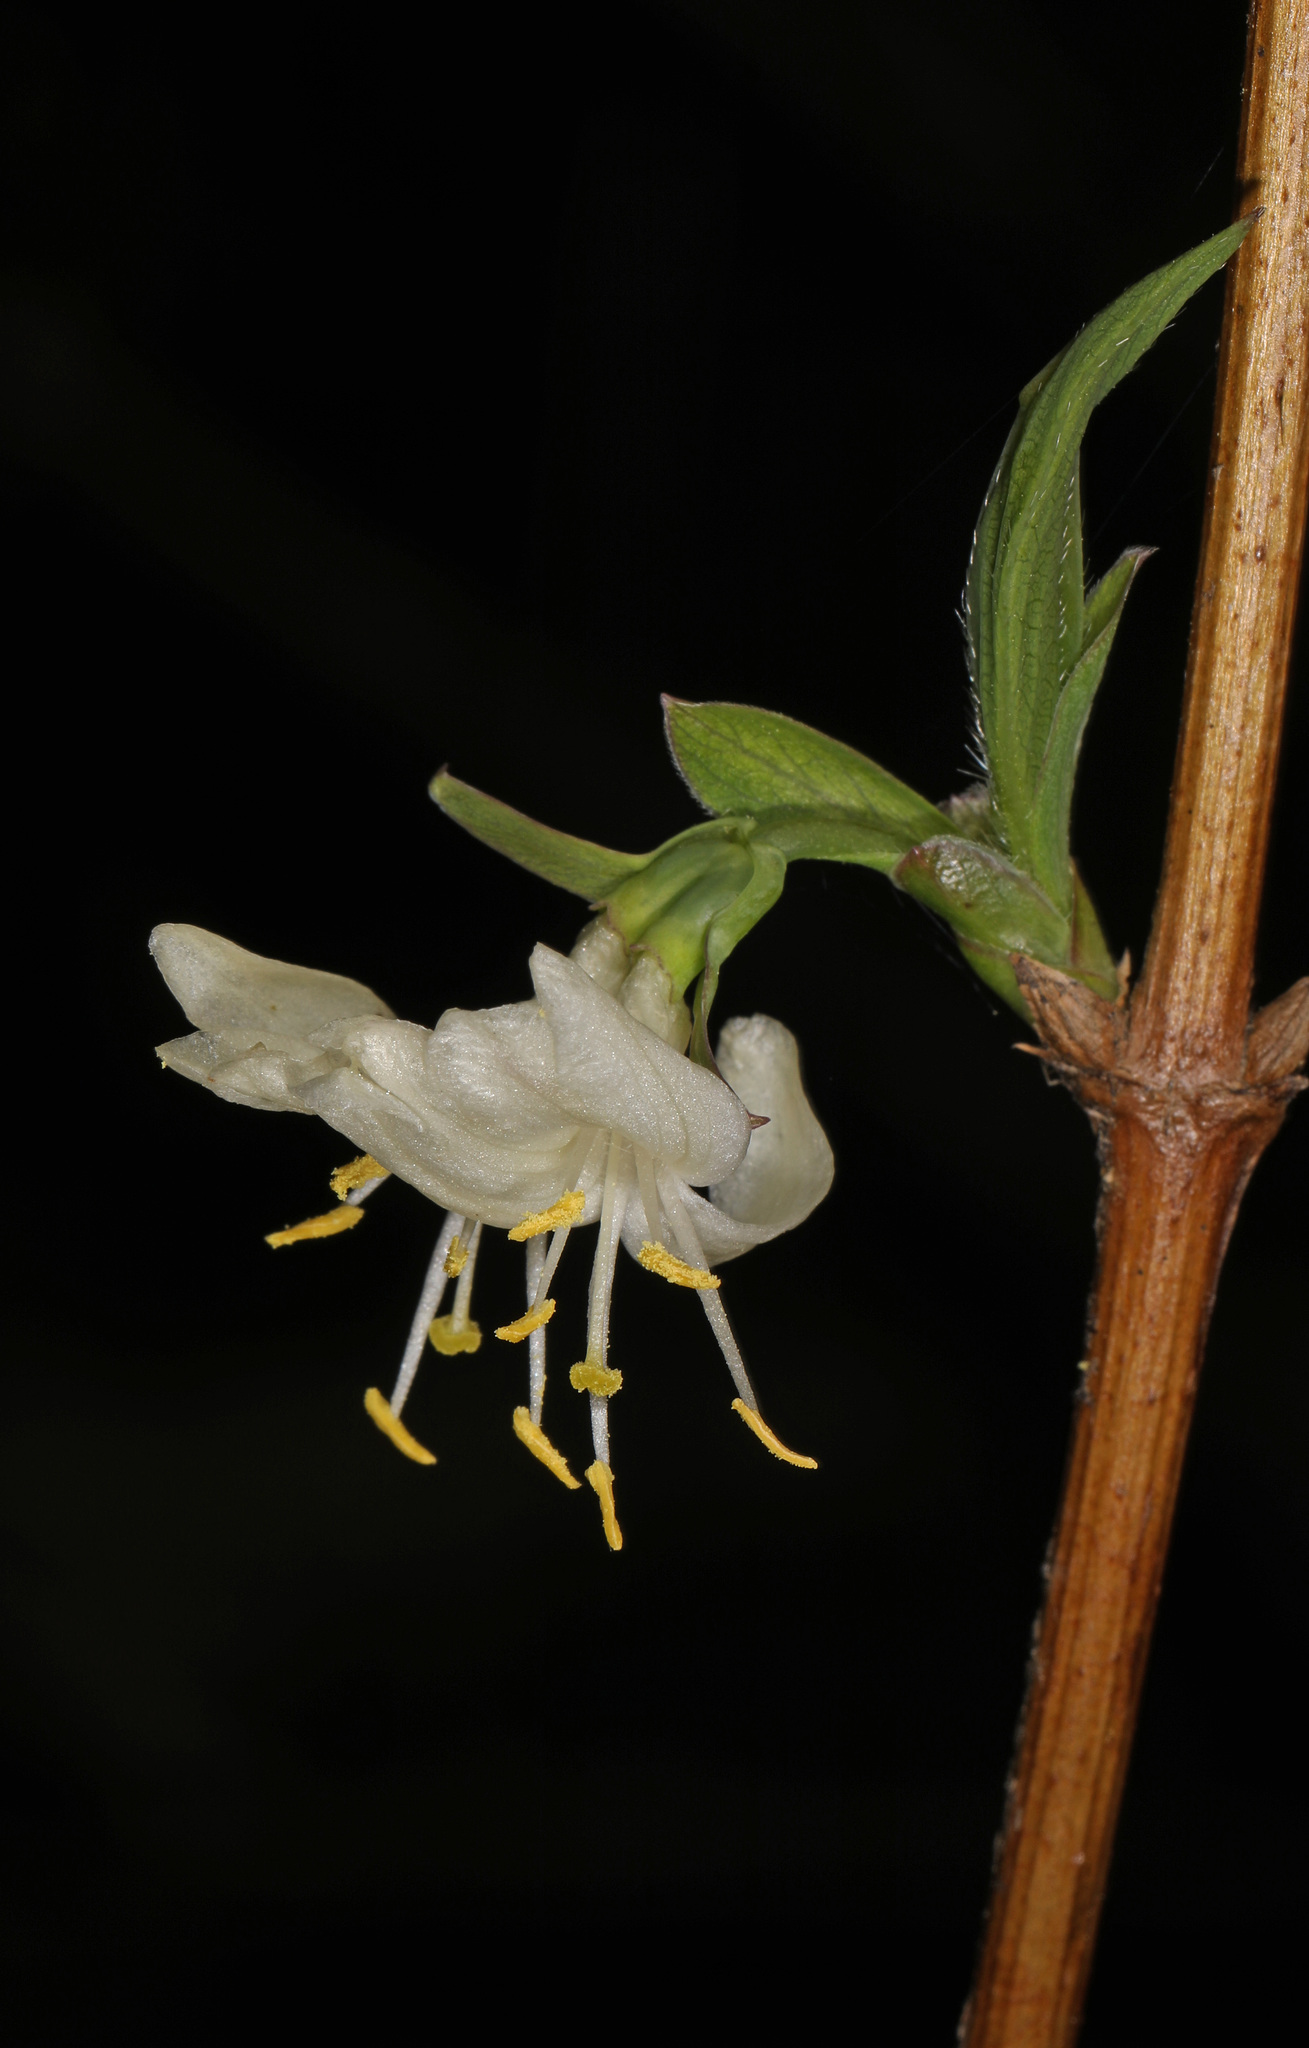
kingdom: Plantae
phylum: Tracheophyta
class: Magnoliopsida
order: Dipsacales
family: Caprifoliaceae
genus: Lonicera
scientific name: Lonicera fragrantissima
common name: Fragrant honeysuckle
